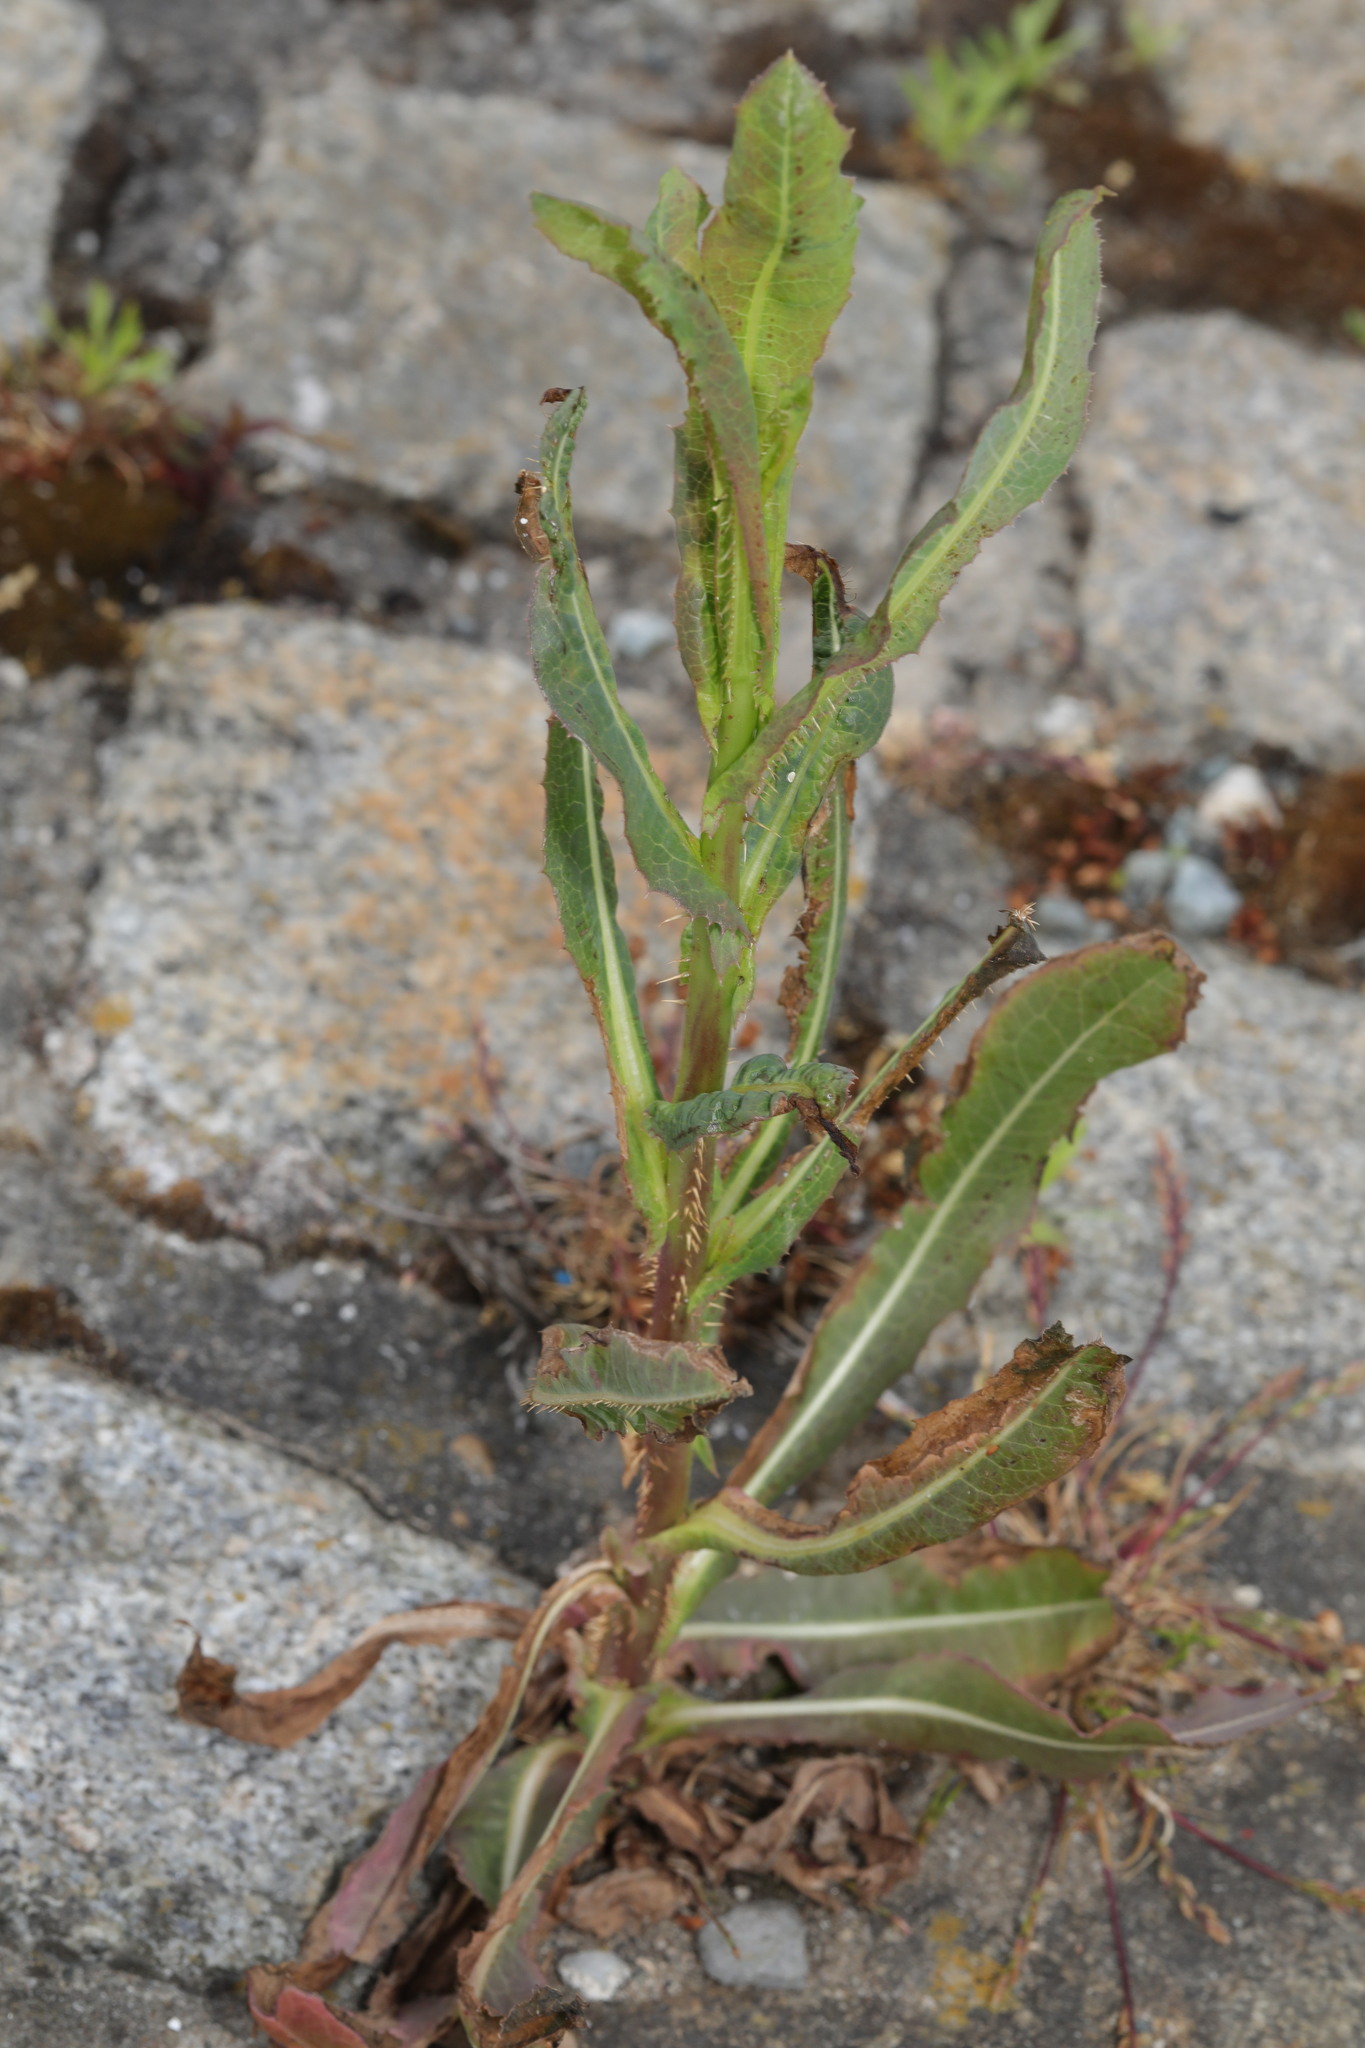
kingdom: Plantae
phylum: Tracheophyta
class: Magnoliopsida
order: Asterales
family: Asteraceae
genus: Lactuca
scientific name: Lactuca serriola
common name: Prickly lettuce
